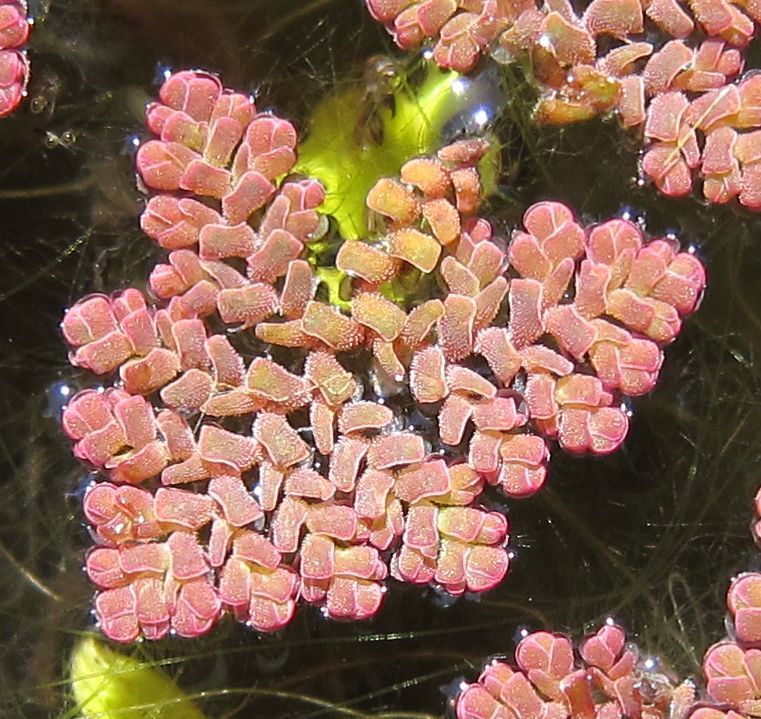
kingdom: Plantae
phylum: Tracheophyta
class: Polypodiopsida
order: Salviniales
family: Salviniaceae
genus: Azolla
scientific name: Azolla pinnata
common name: Ferny azolla
